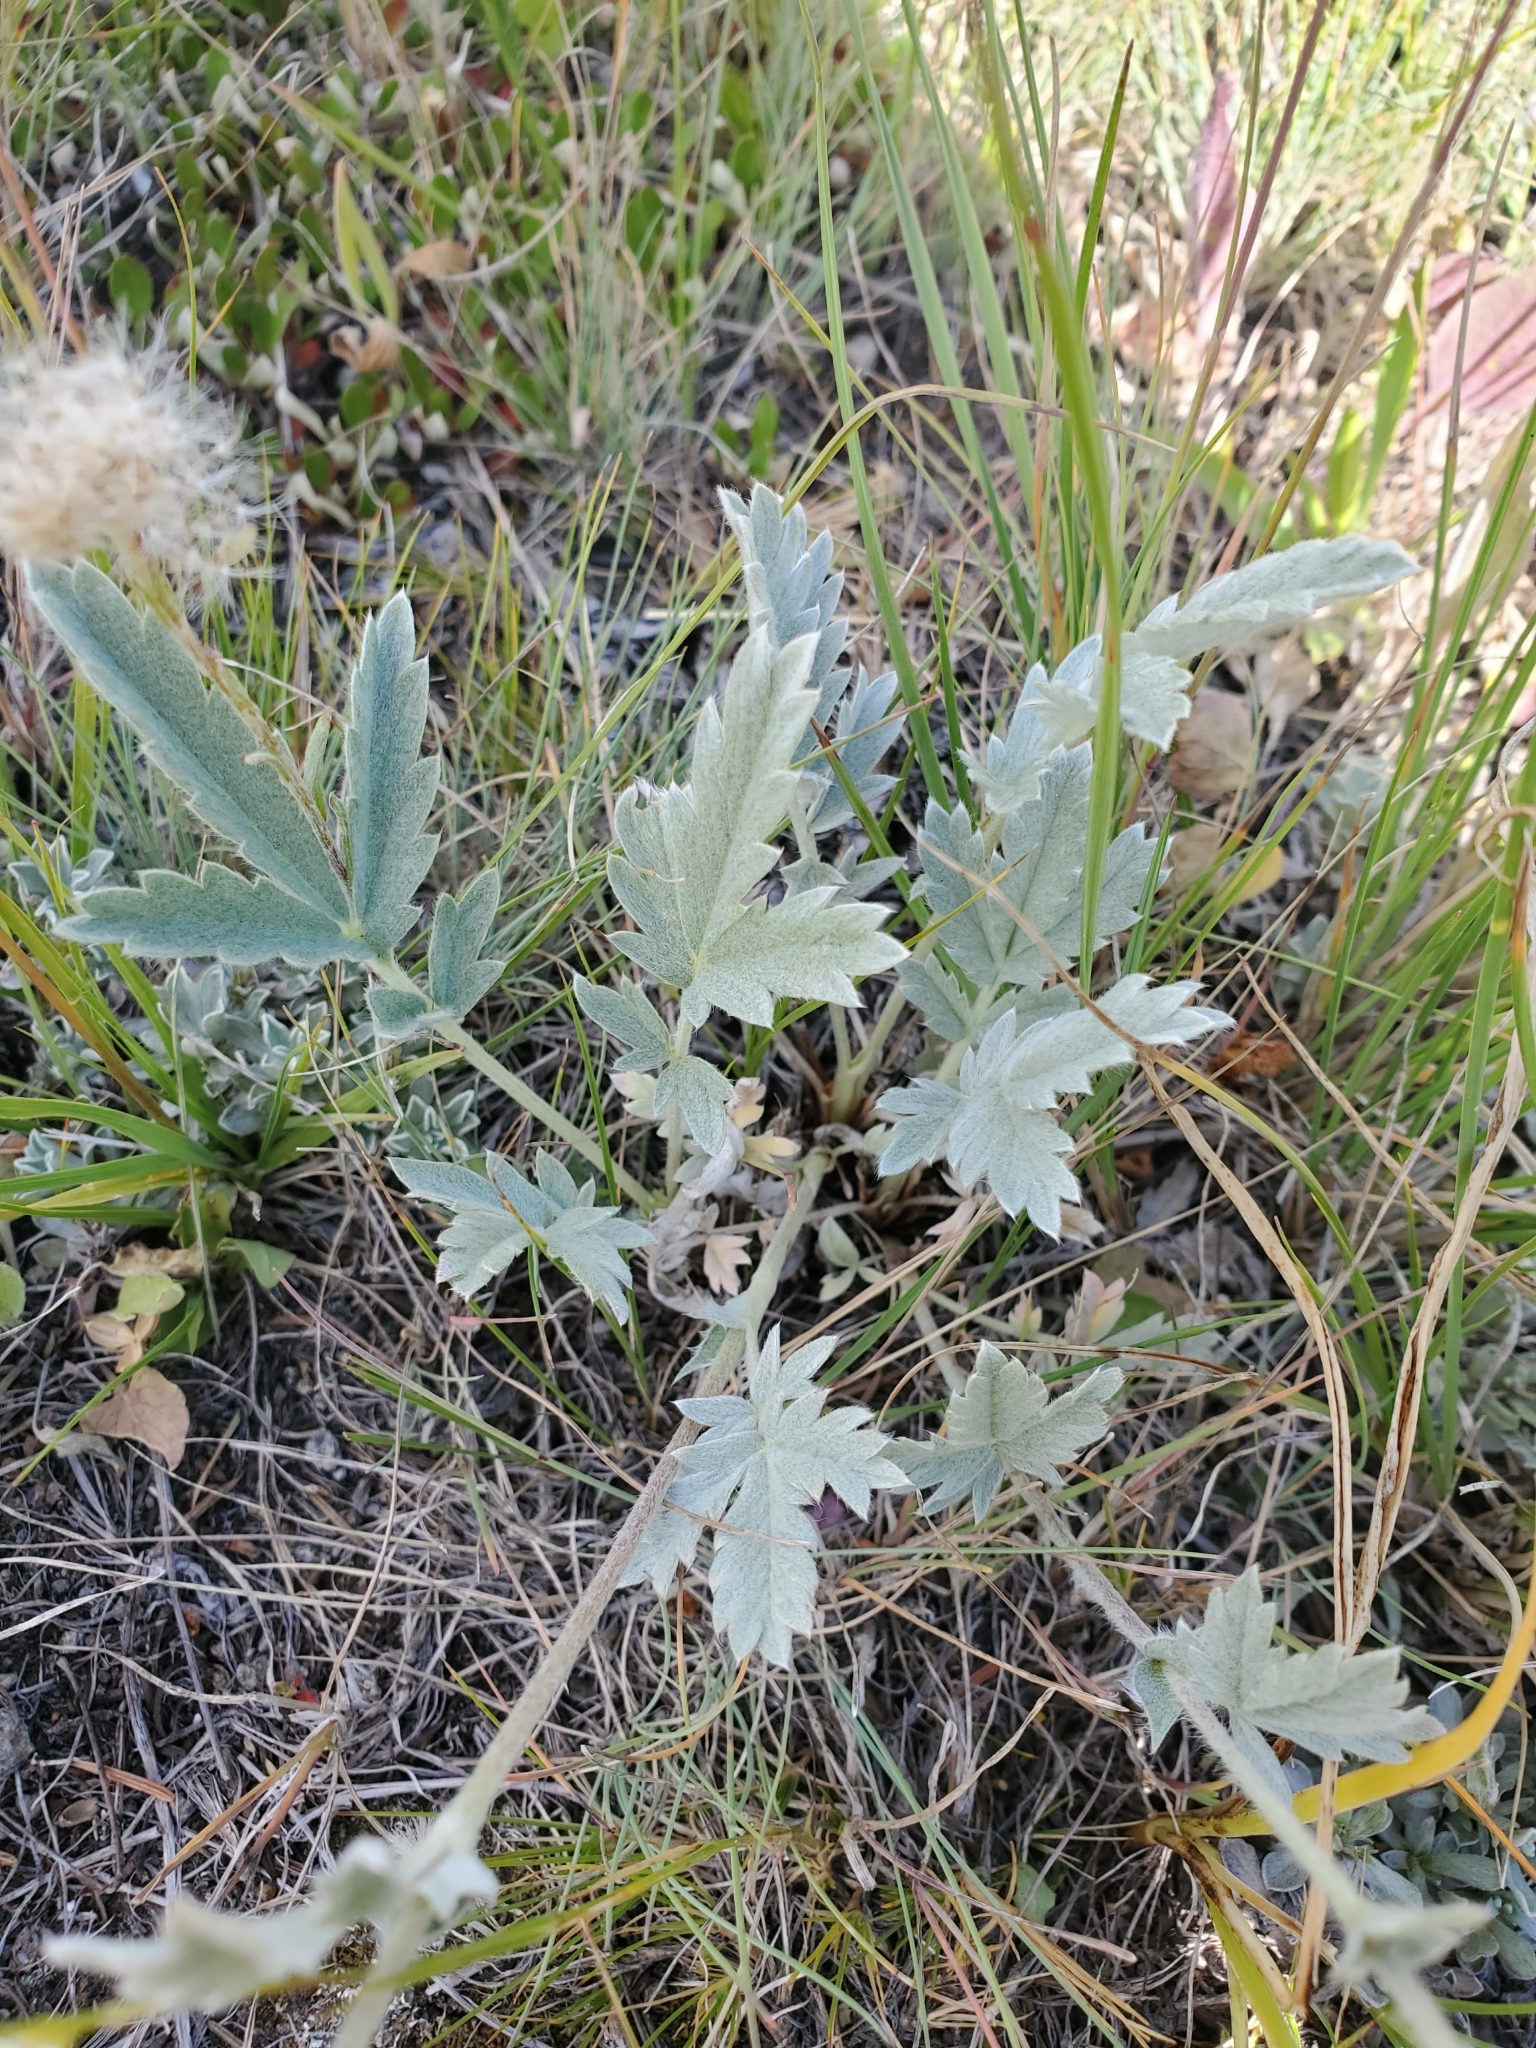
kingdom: Plantae
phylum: Tracheophyta
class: Magnoliopsida
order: Rosales
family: Rosaceae
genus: Potentilla
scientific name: Potentilla effusa
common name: Branched cinquefoil
